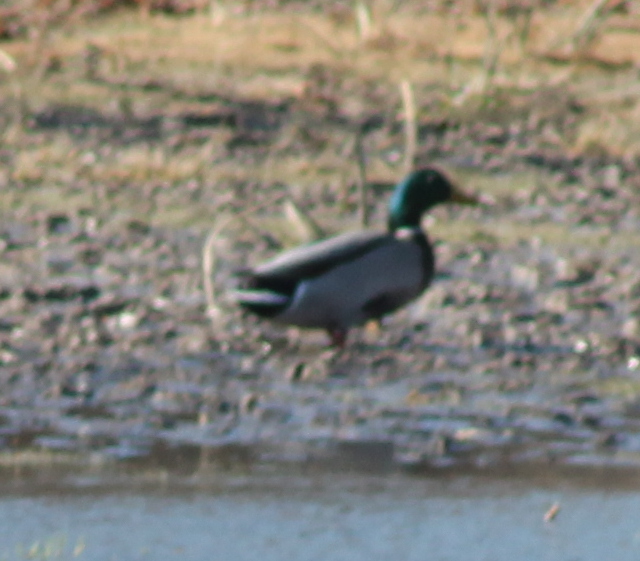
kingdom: Animalia
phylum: Chordata
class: Aves
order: Anseriformes
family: Anatidae
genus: Anas
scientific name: Anas platyrhynchos
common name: Mallard
